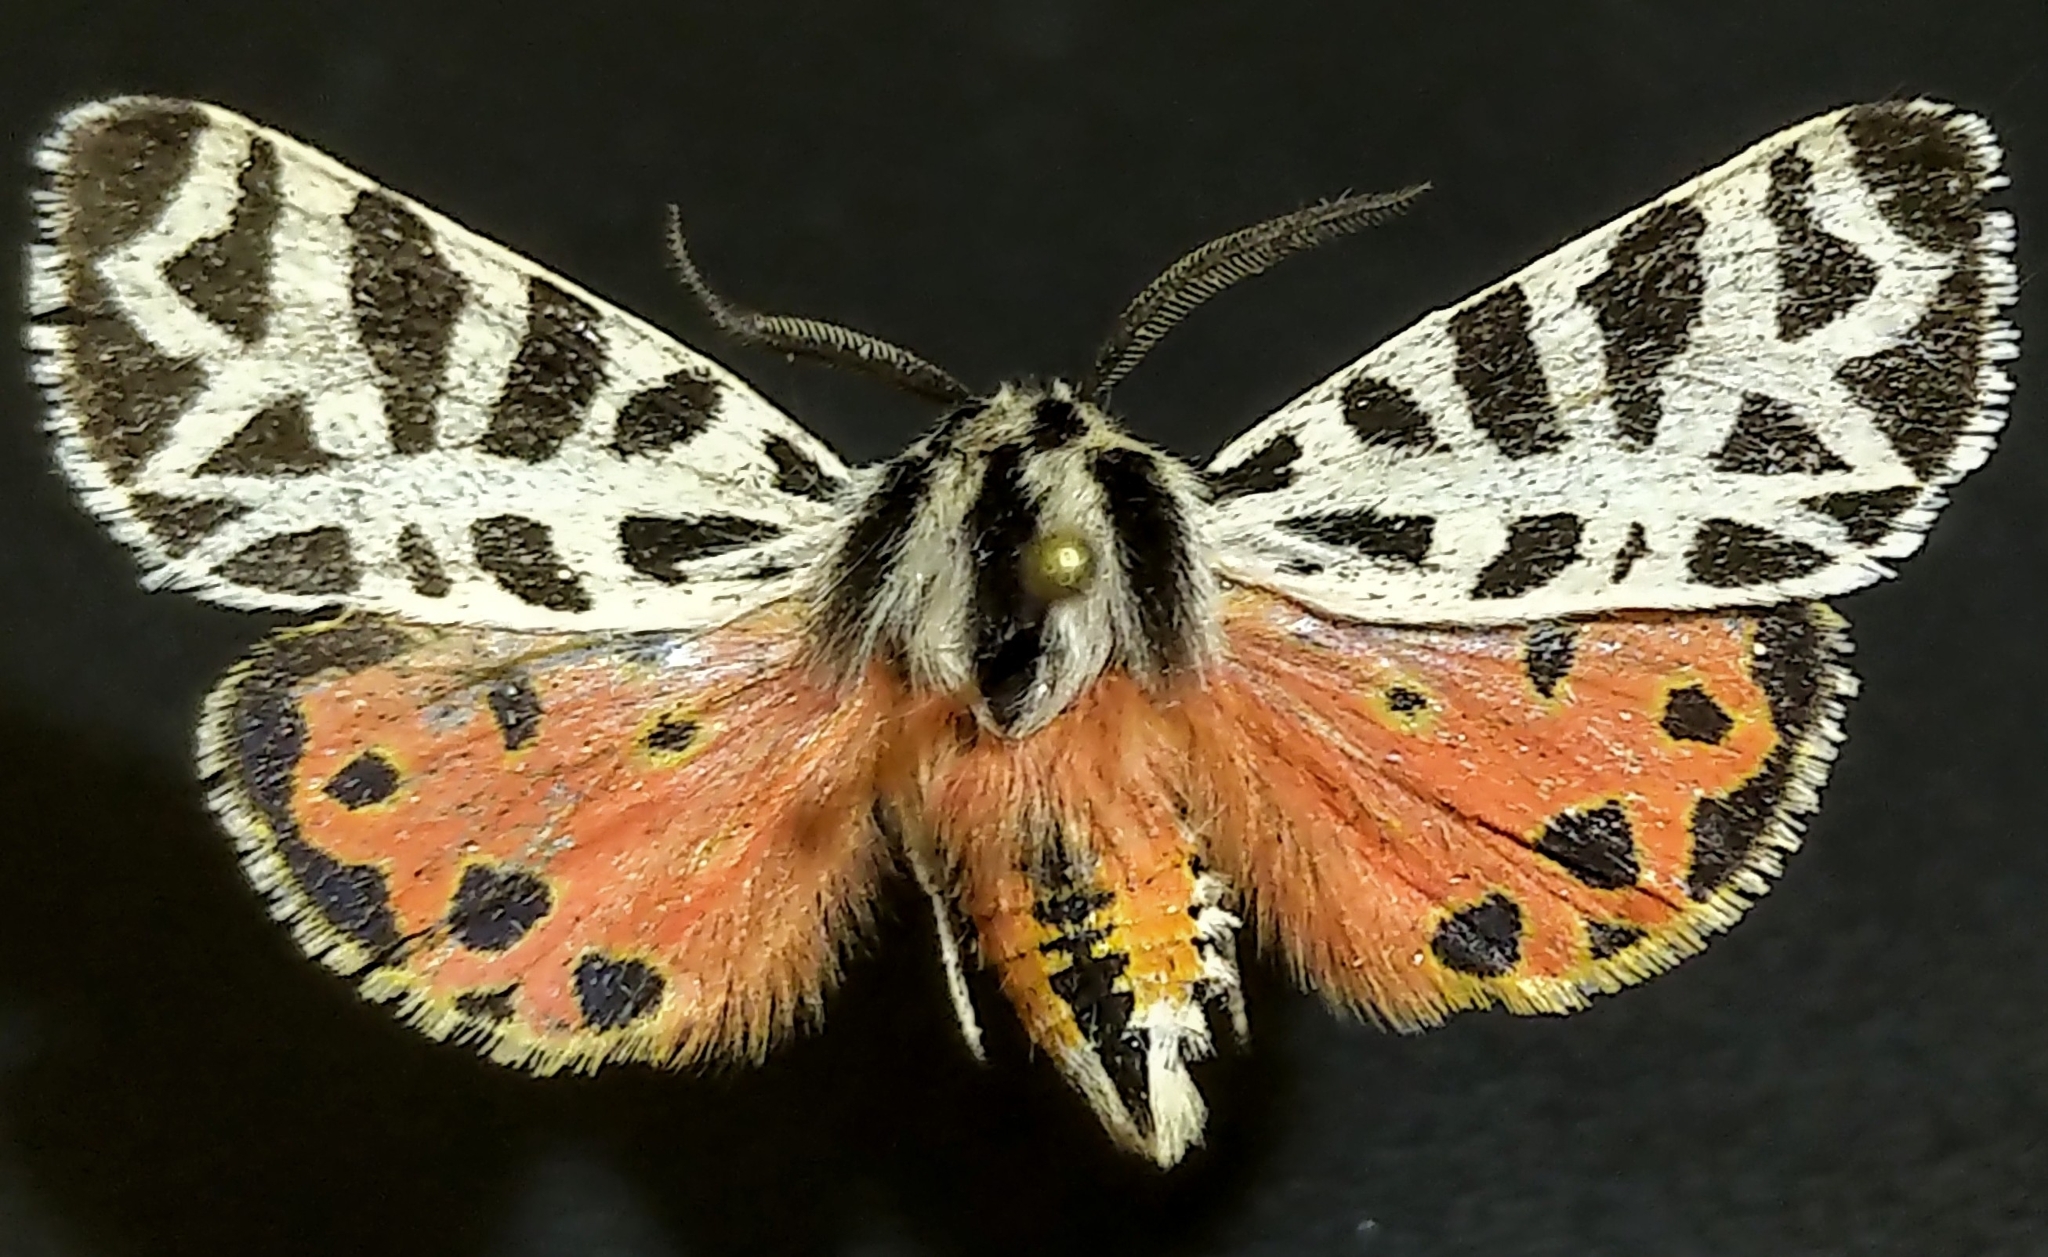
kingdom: Animalia
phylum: Arthropoda
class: Insecta
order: Lepidoptera
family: Erebidae
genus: Apantesis
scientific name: Apantesis
